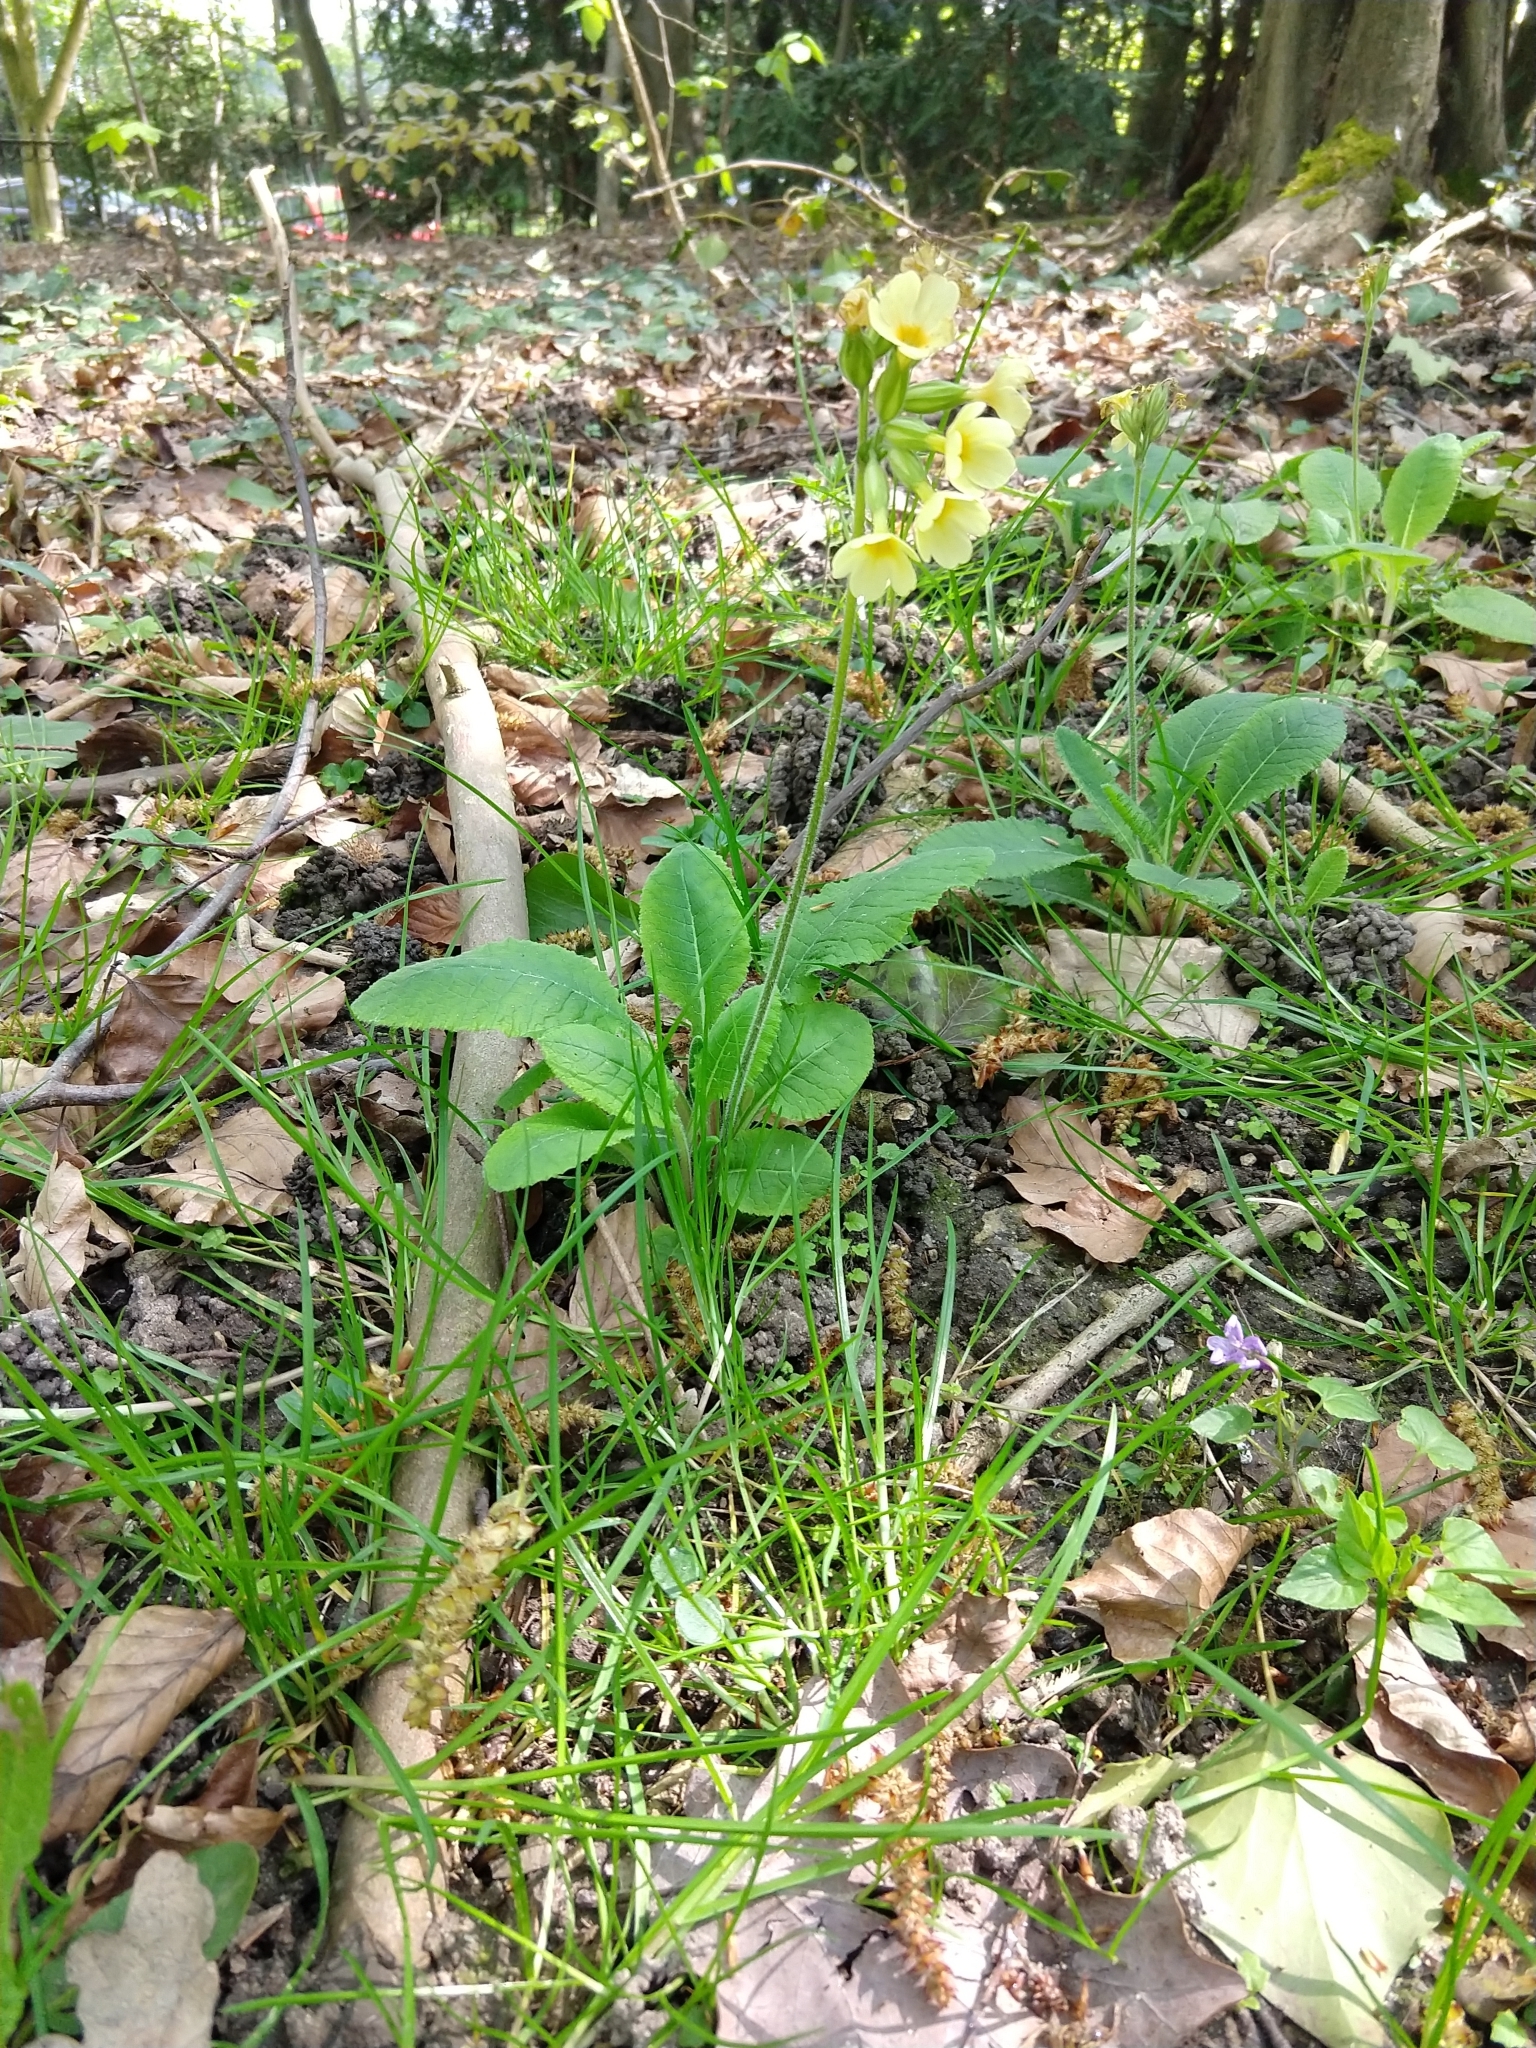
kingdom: Plantae
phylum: Tracheophyta
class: Magnoliopsida
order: Ericales
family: Primulaceae
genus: Primula
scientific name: Primula elatior
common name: Oxlip
